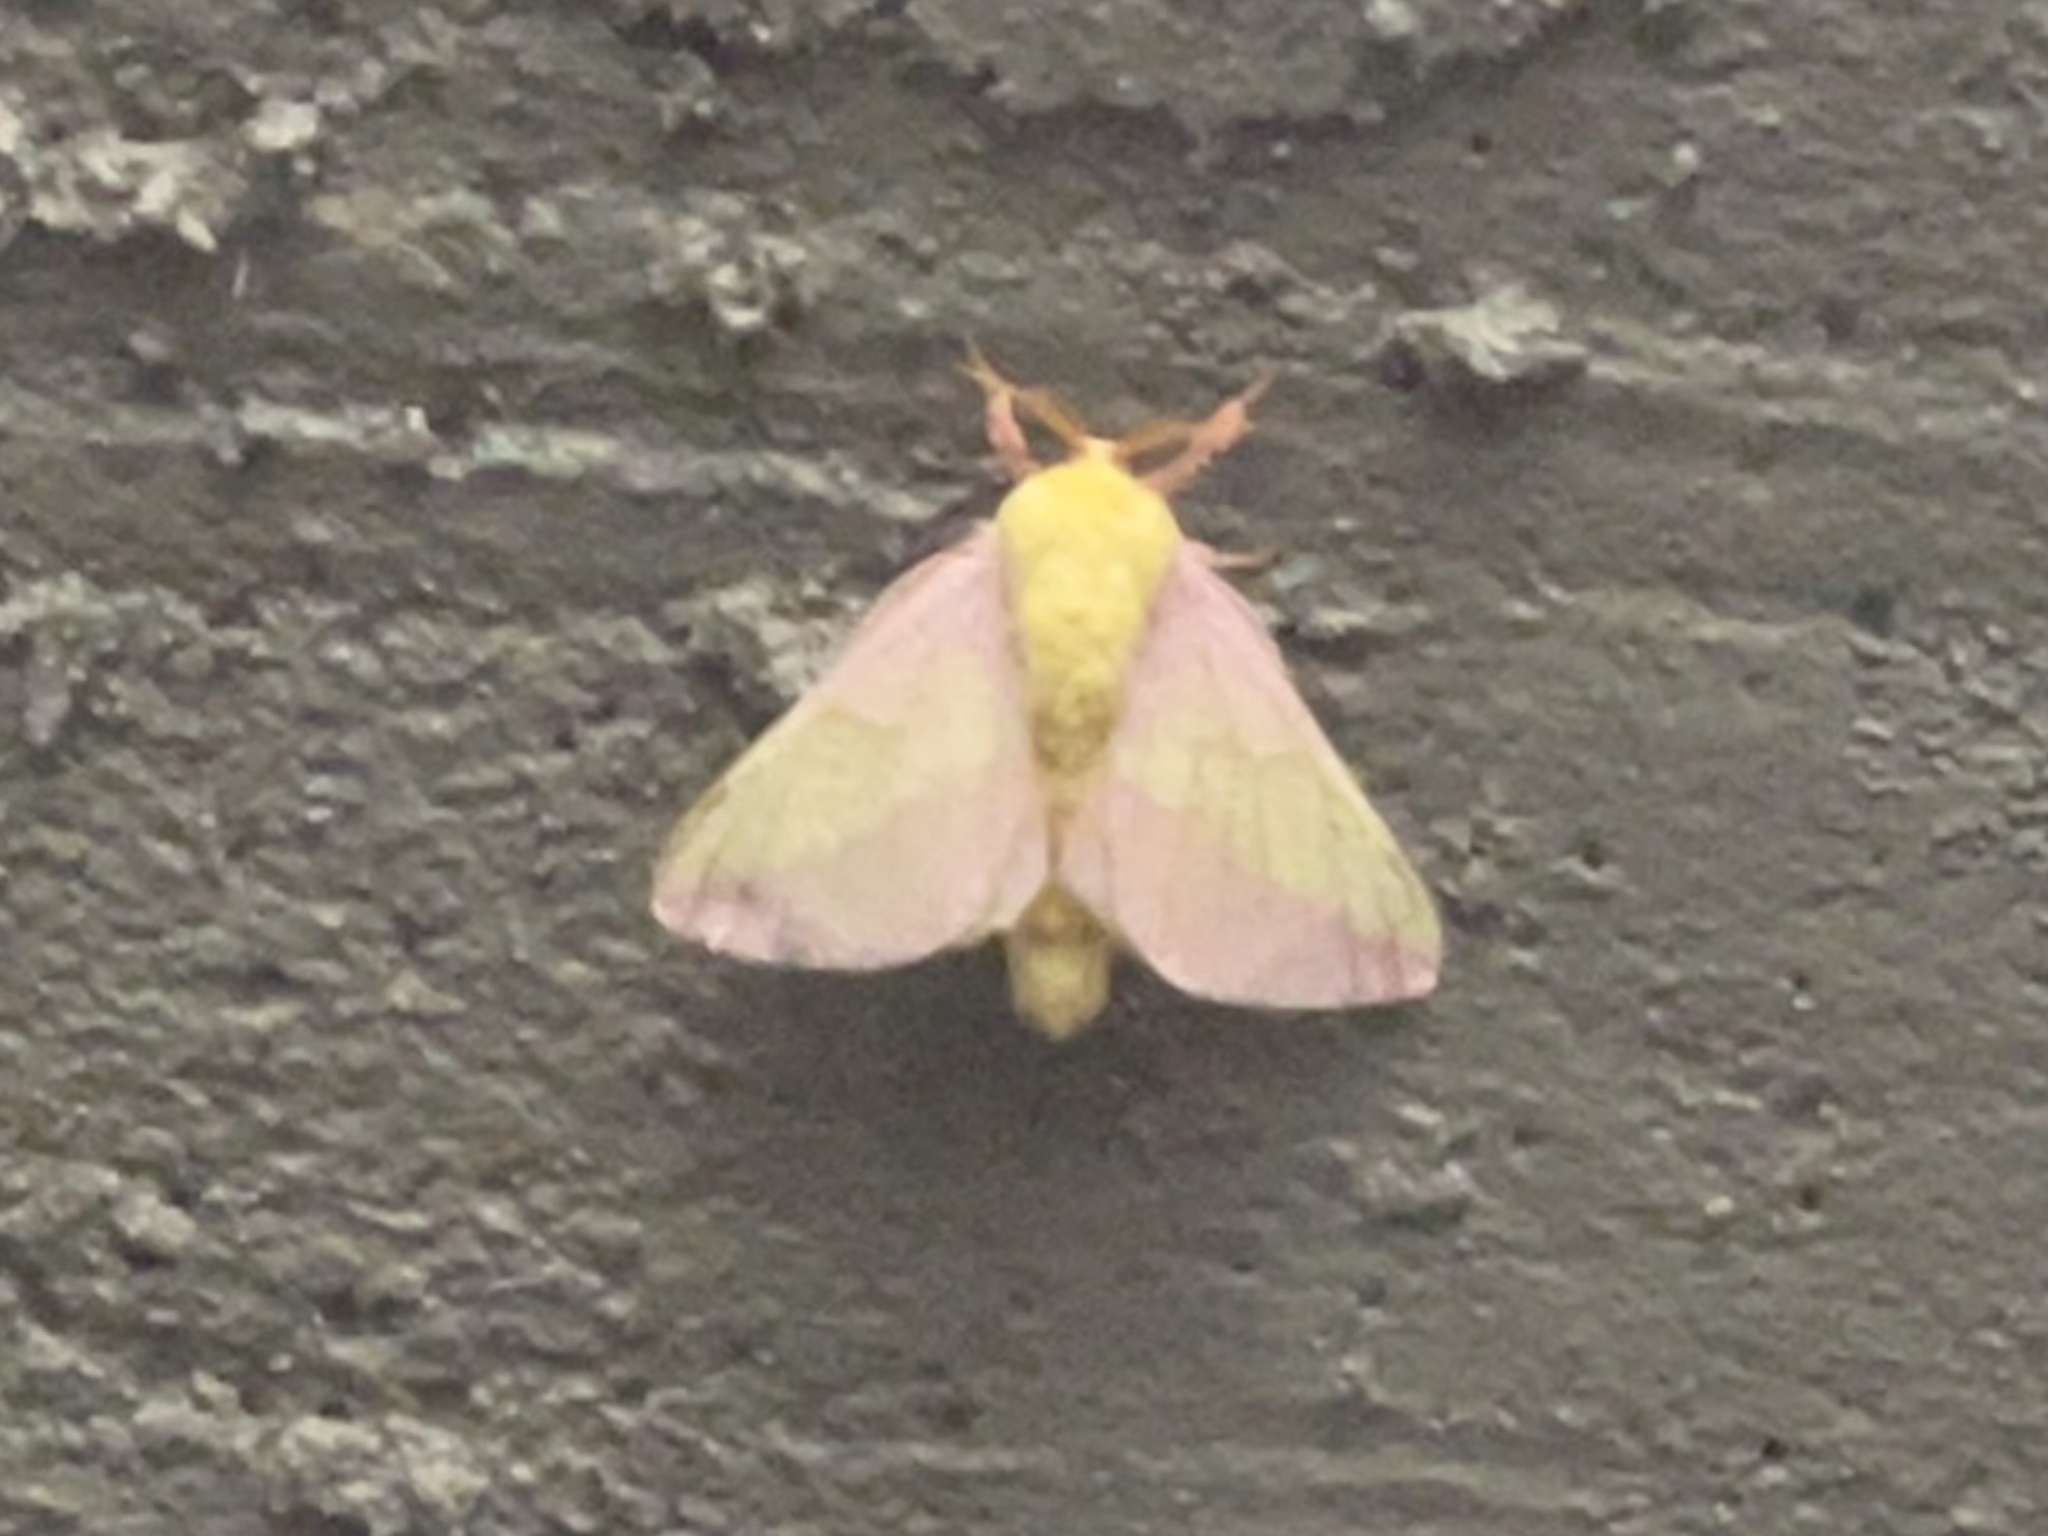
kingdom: Animalia
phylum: Arthropoda
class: Insecta
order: Lepidoptera
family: Saturniidae
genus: Dryocampa
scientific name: Dryocampa rubicunda
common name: Rosy maple moth
